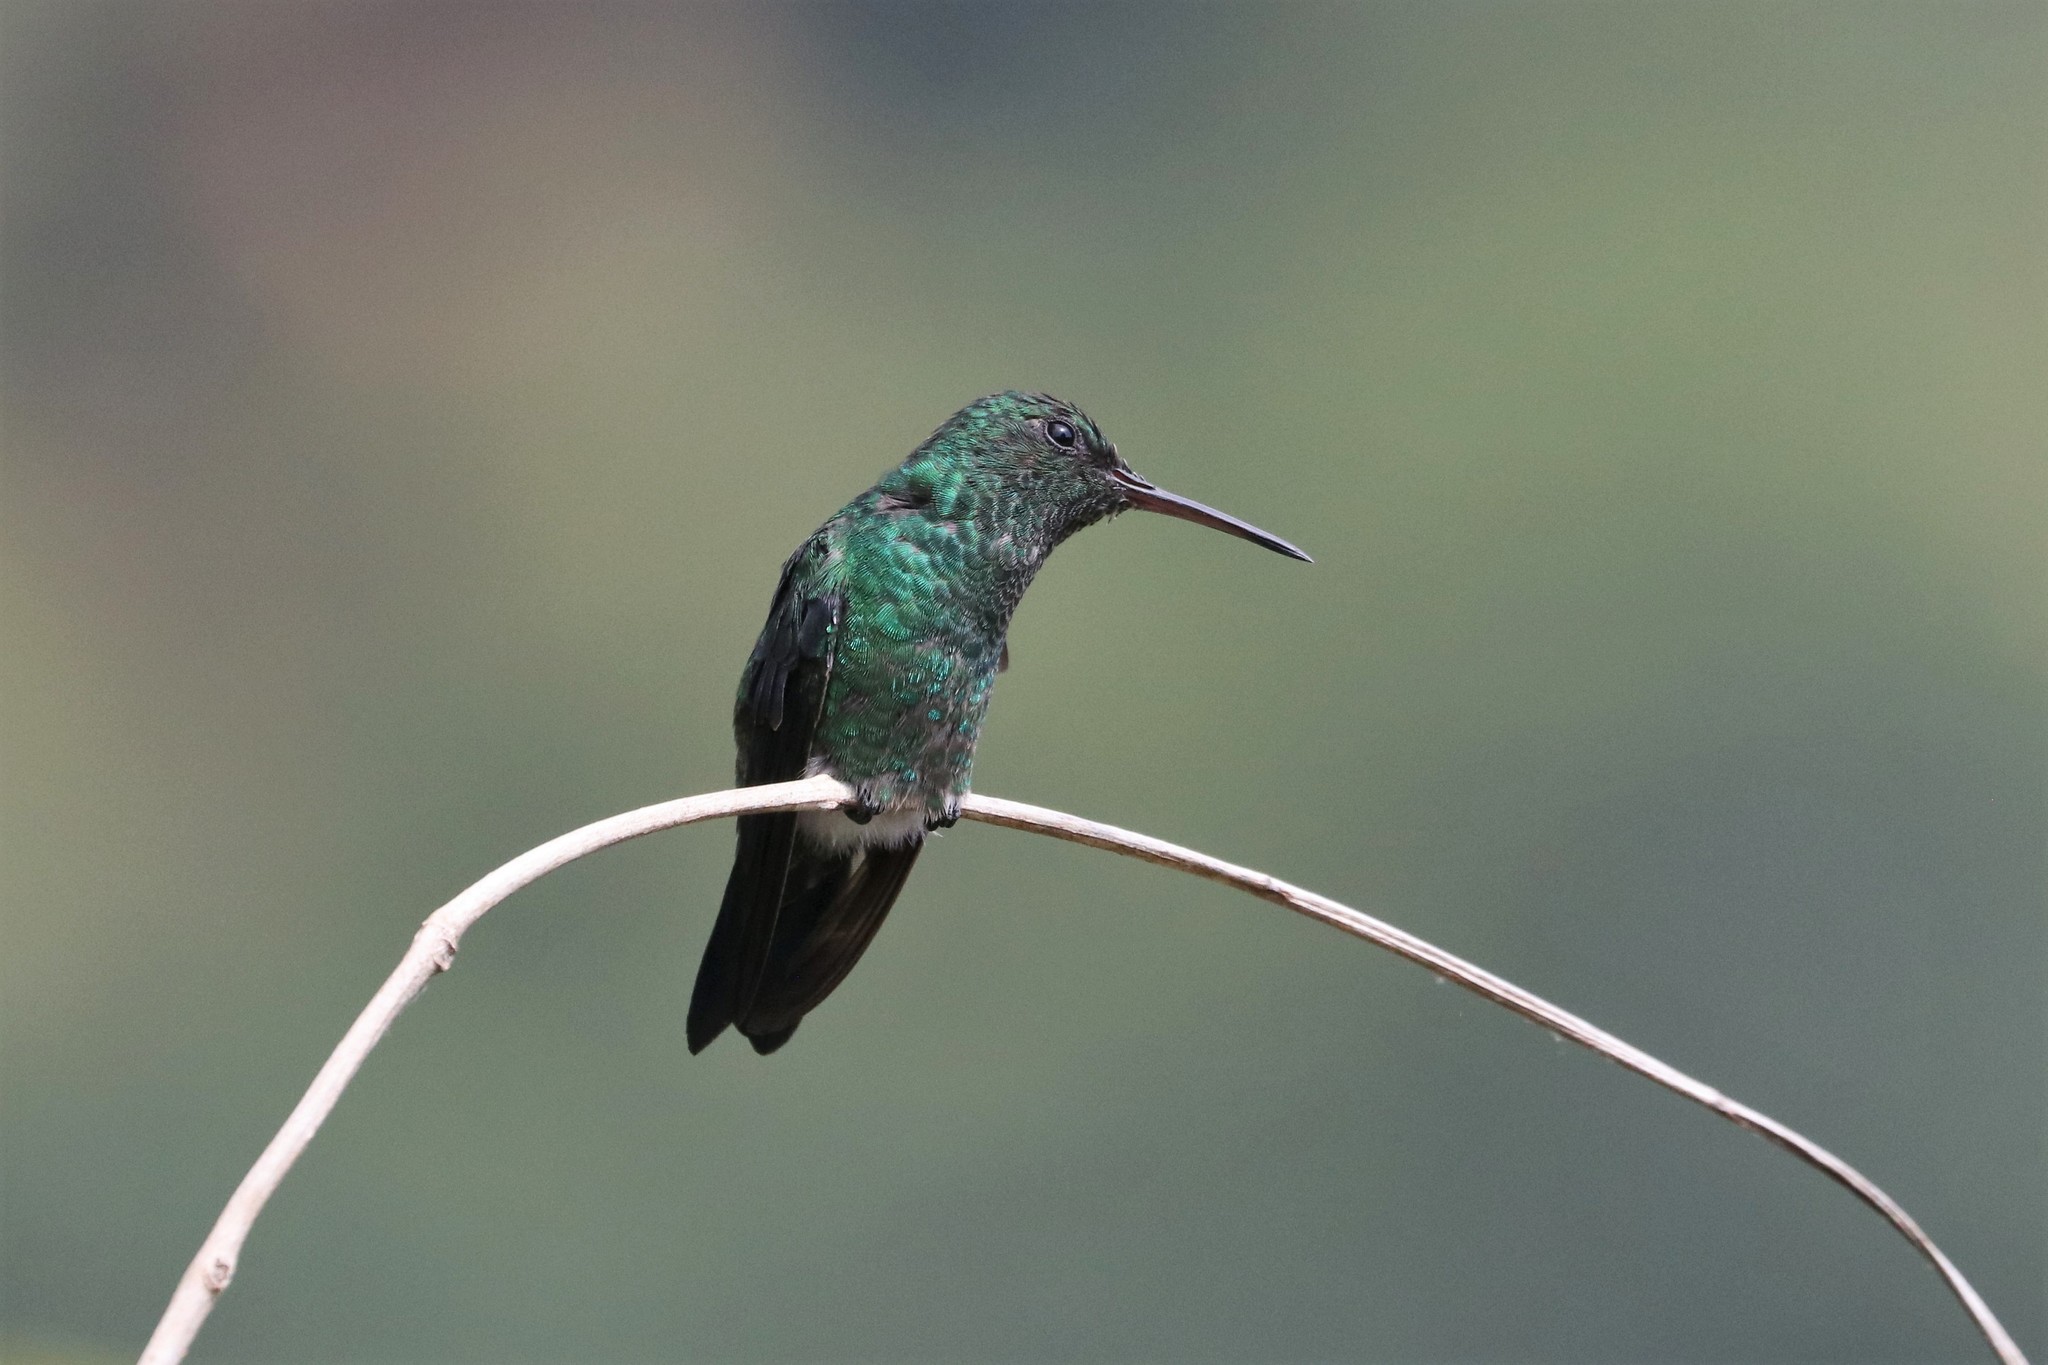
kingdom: Animalia
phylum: Chordata
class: Aves
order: Apodiformes
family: Trochilidae
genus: Saucerottia
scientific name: Saucerottia saucerottei
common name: Steely-vented hummingbird
